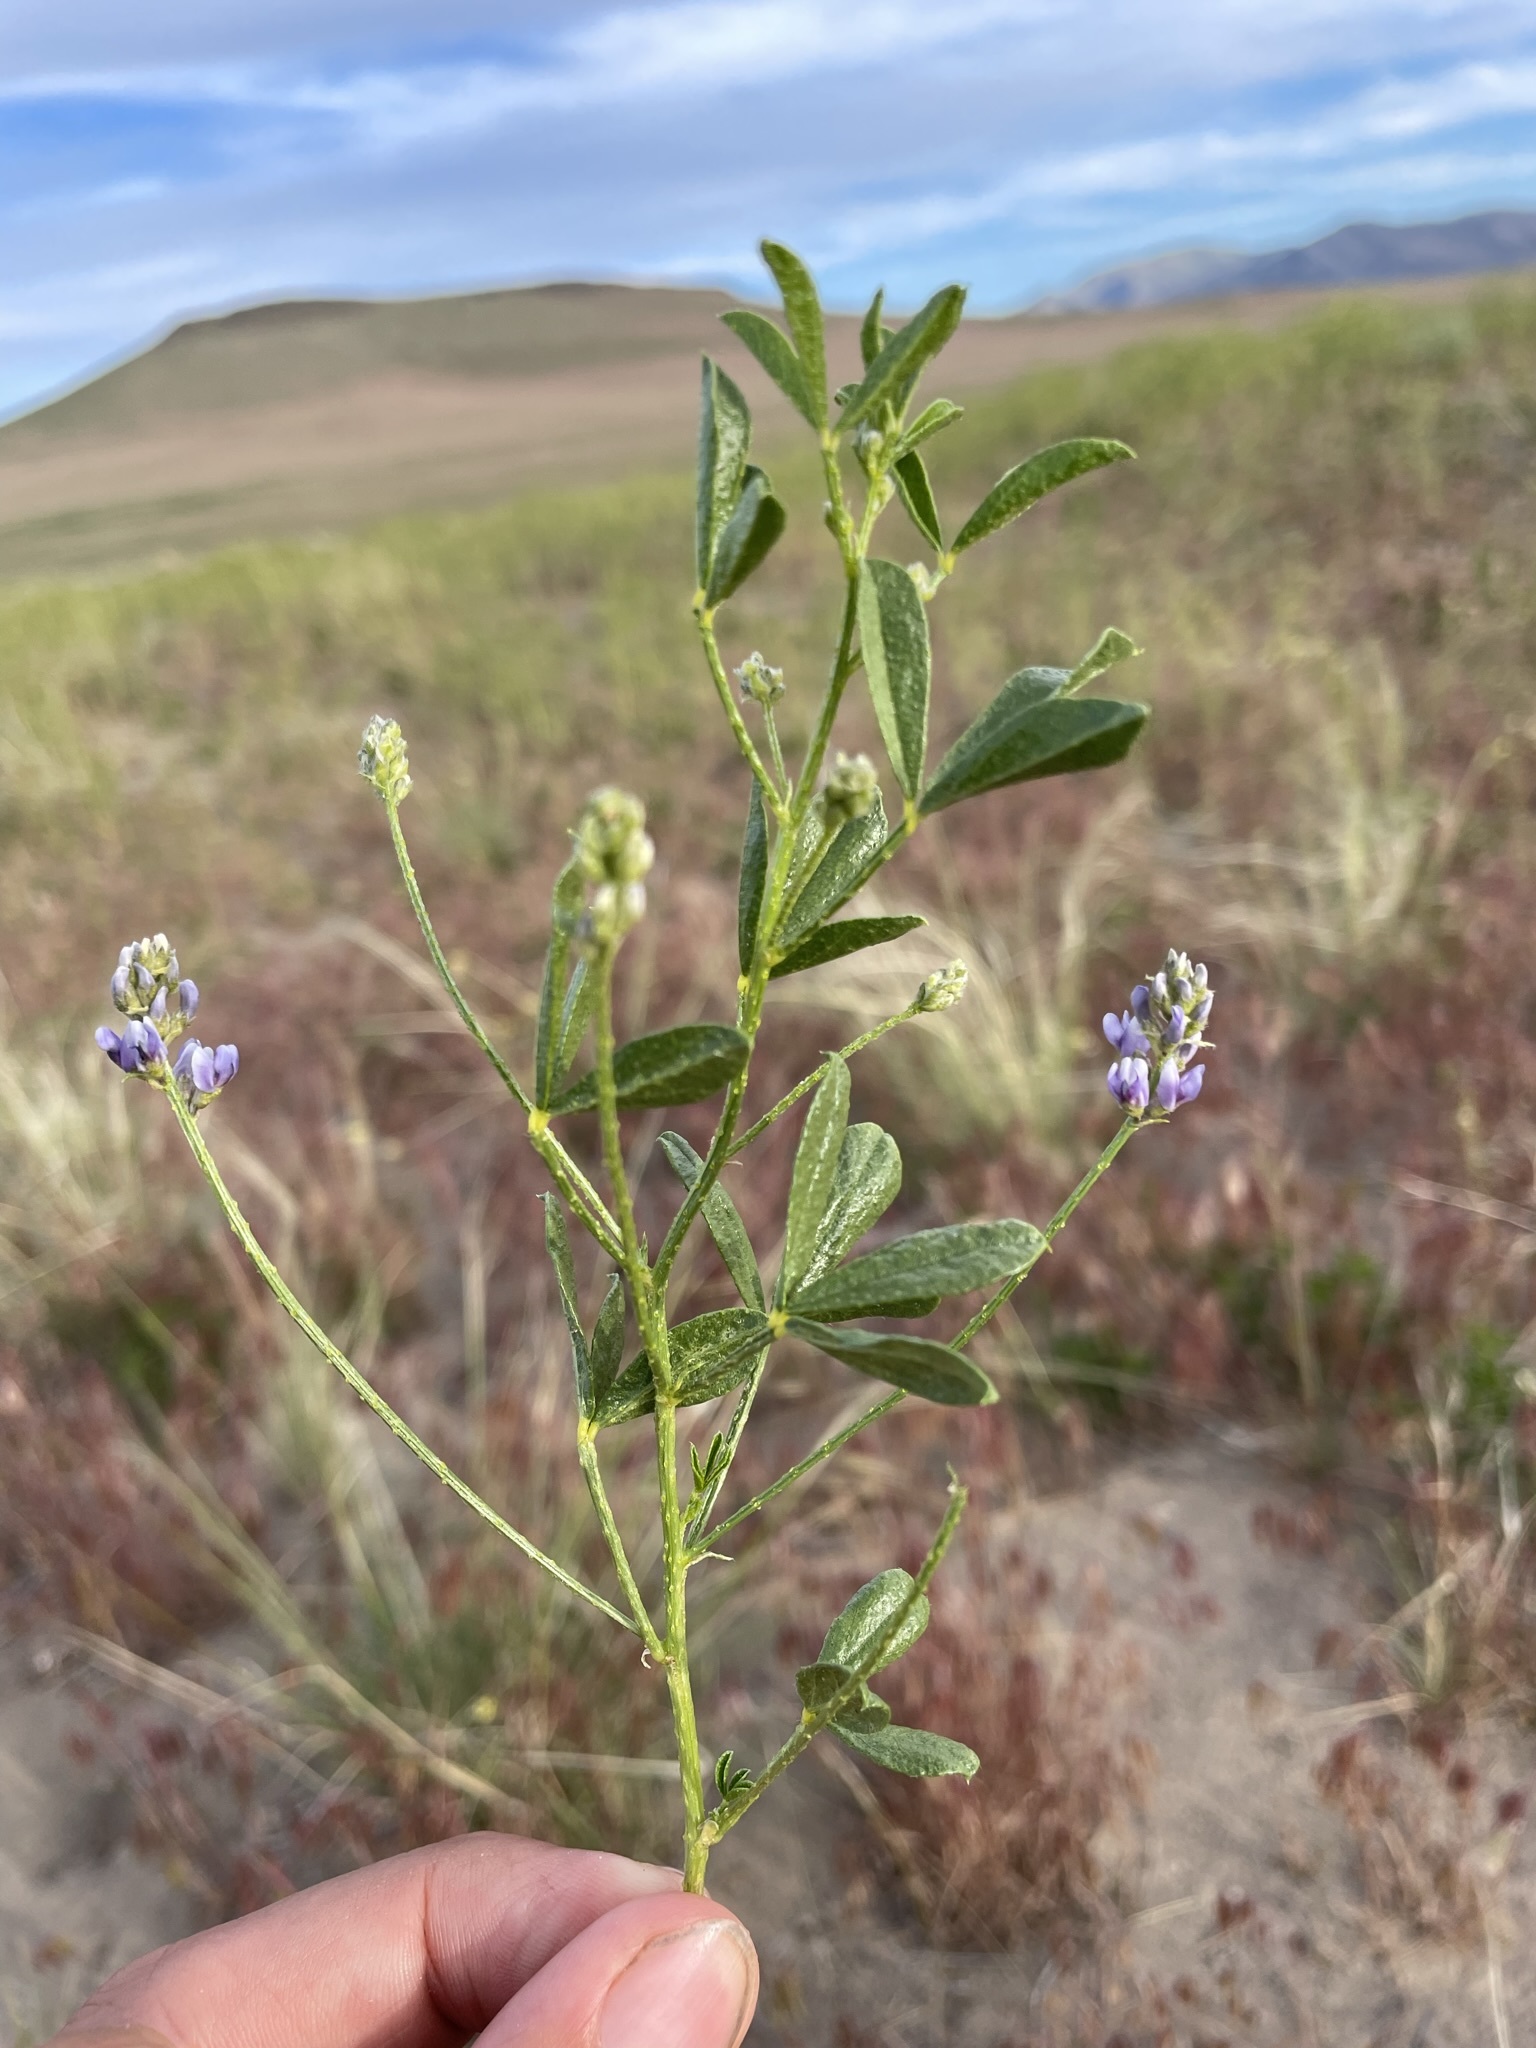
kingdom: Plantae
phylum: Tracheophyta
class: Magnoliopsida
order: Fabales
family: Fabaceae
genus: Ladeania
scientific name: Ladeania lanceolata
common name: Dune scurf-pea
